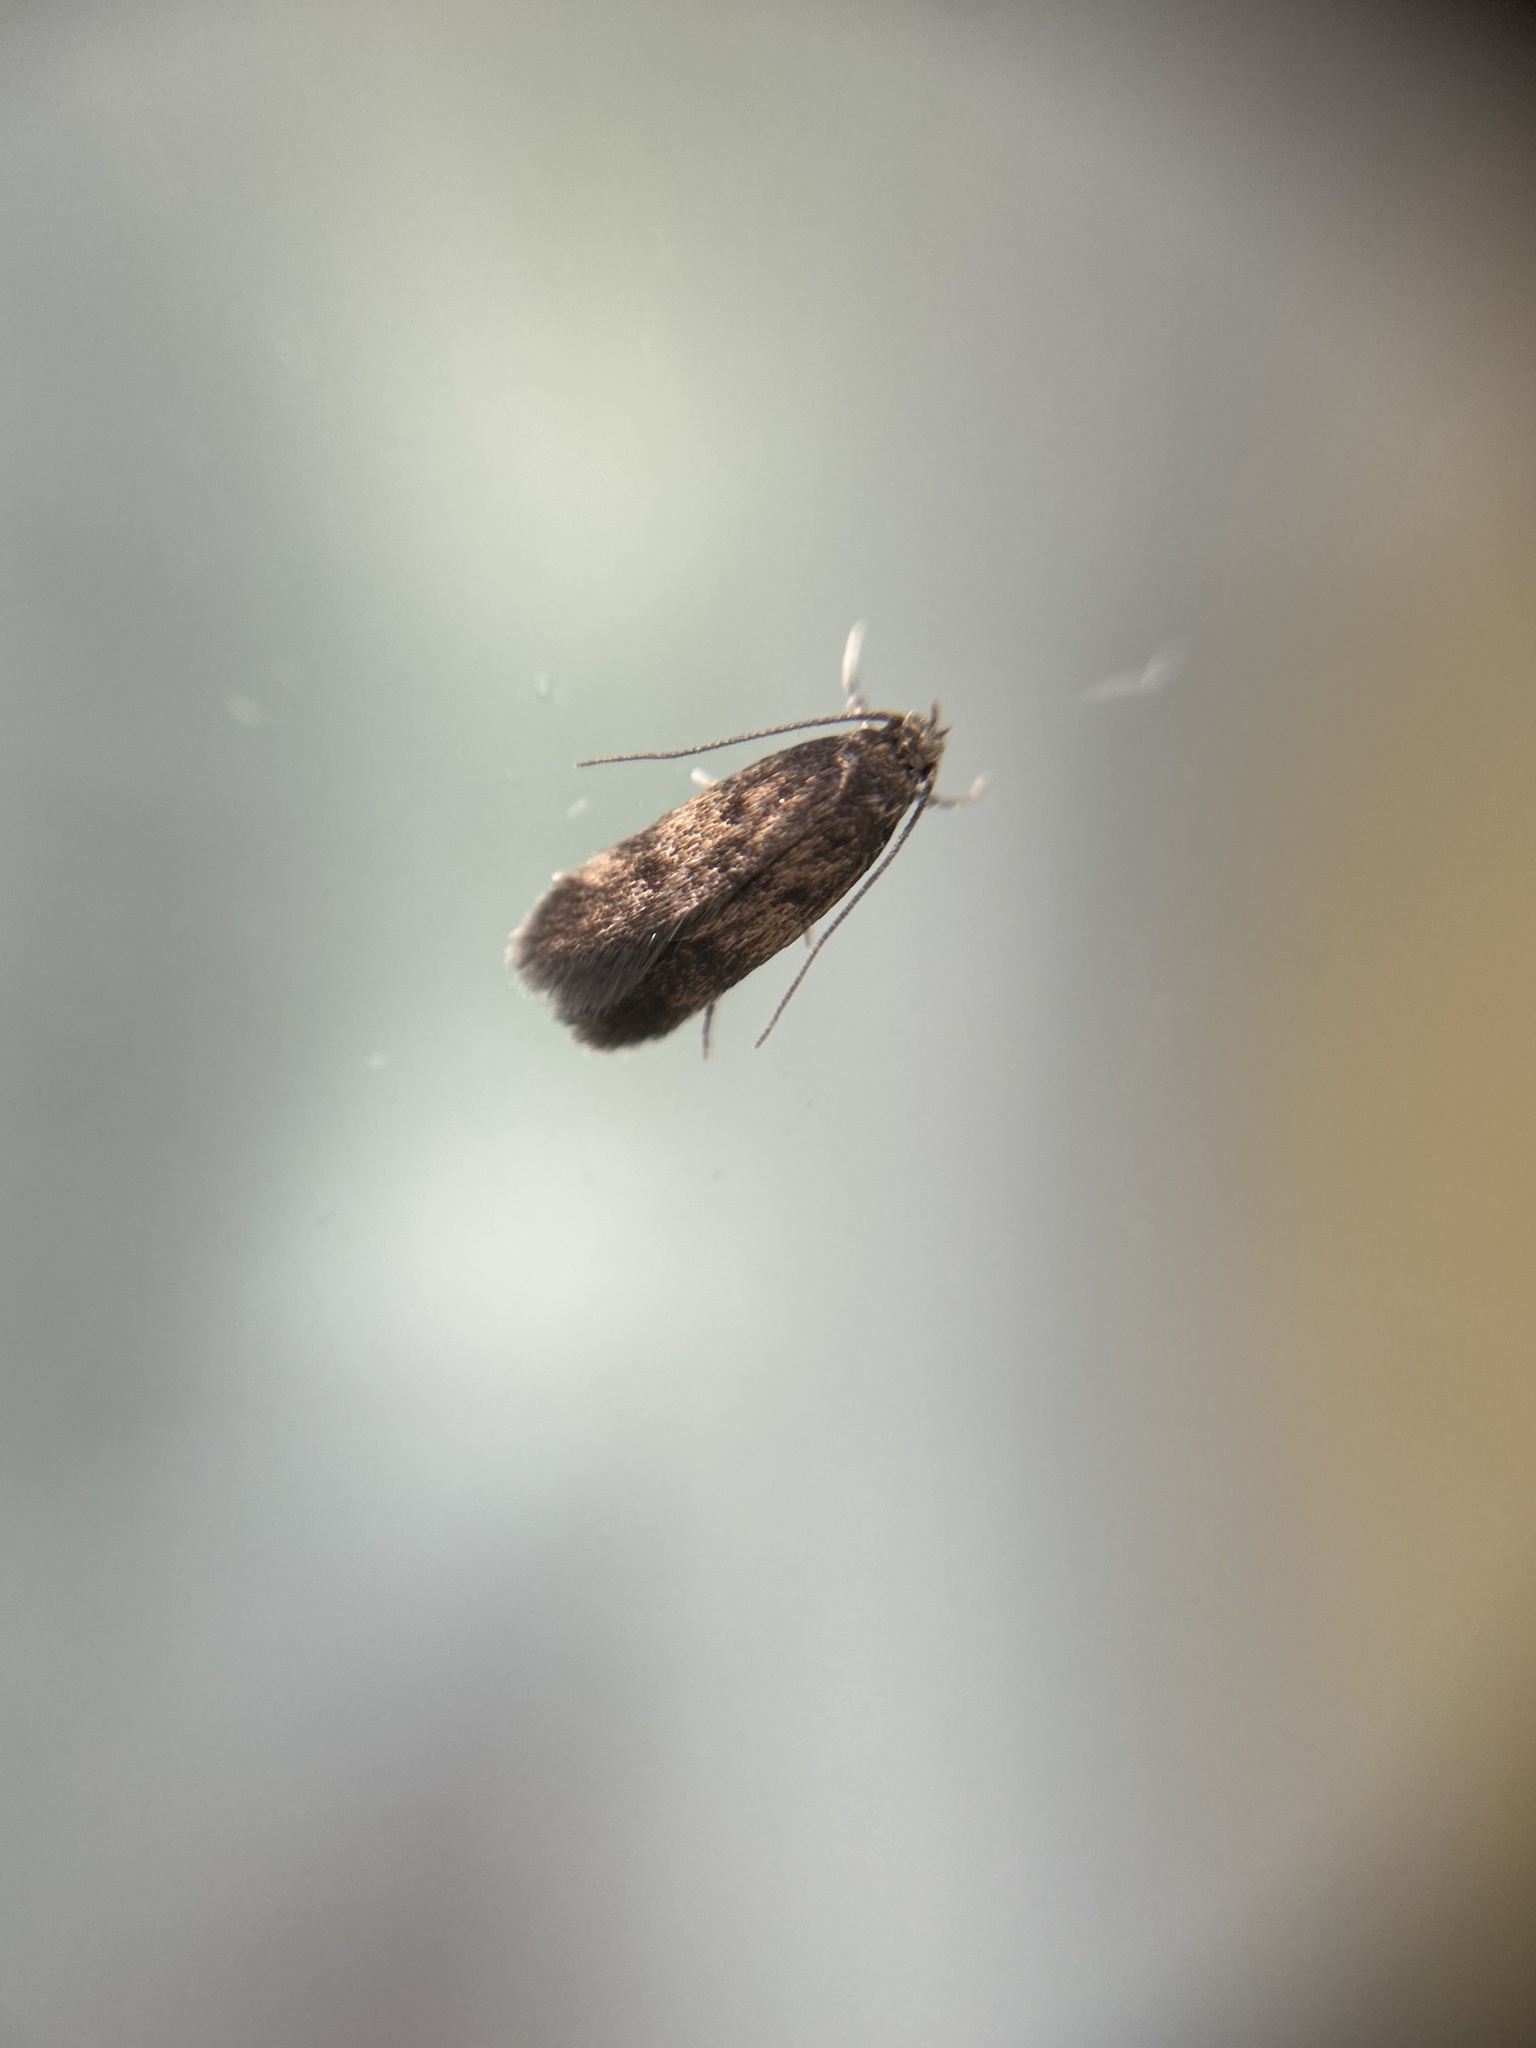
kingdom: Animalia
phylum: Arthropoda
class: Insecta
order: Lepidoptera
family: Oecophoridae
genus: Hofmannophila
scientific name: Hofmannophila pseudospretella
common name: Brown house moth
